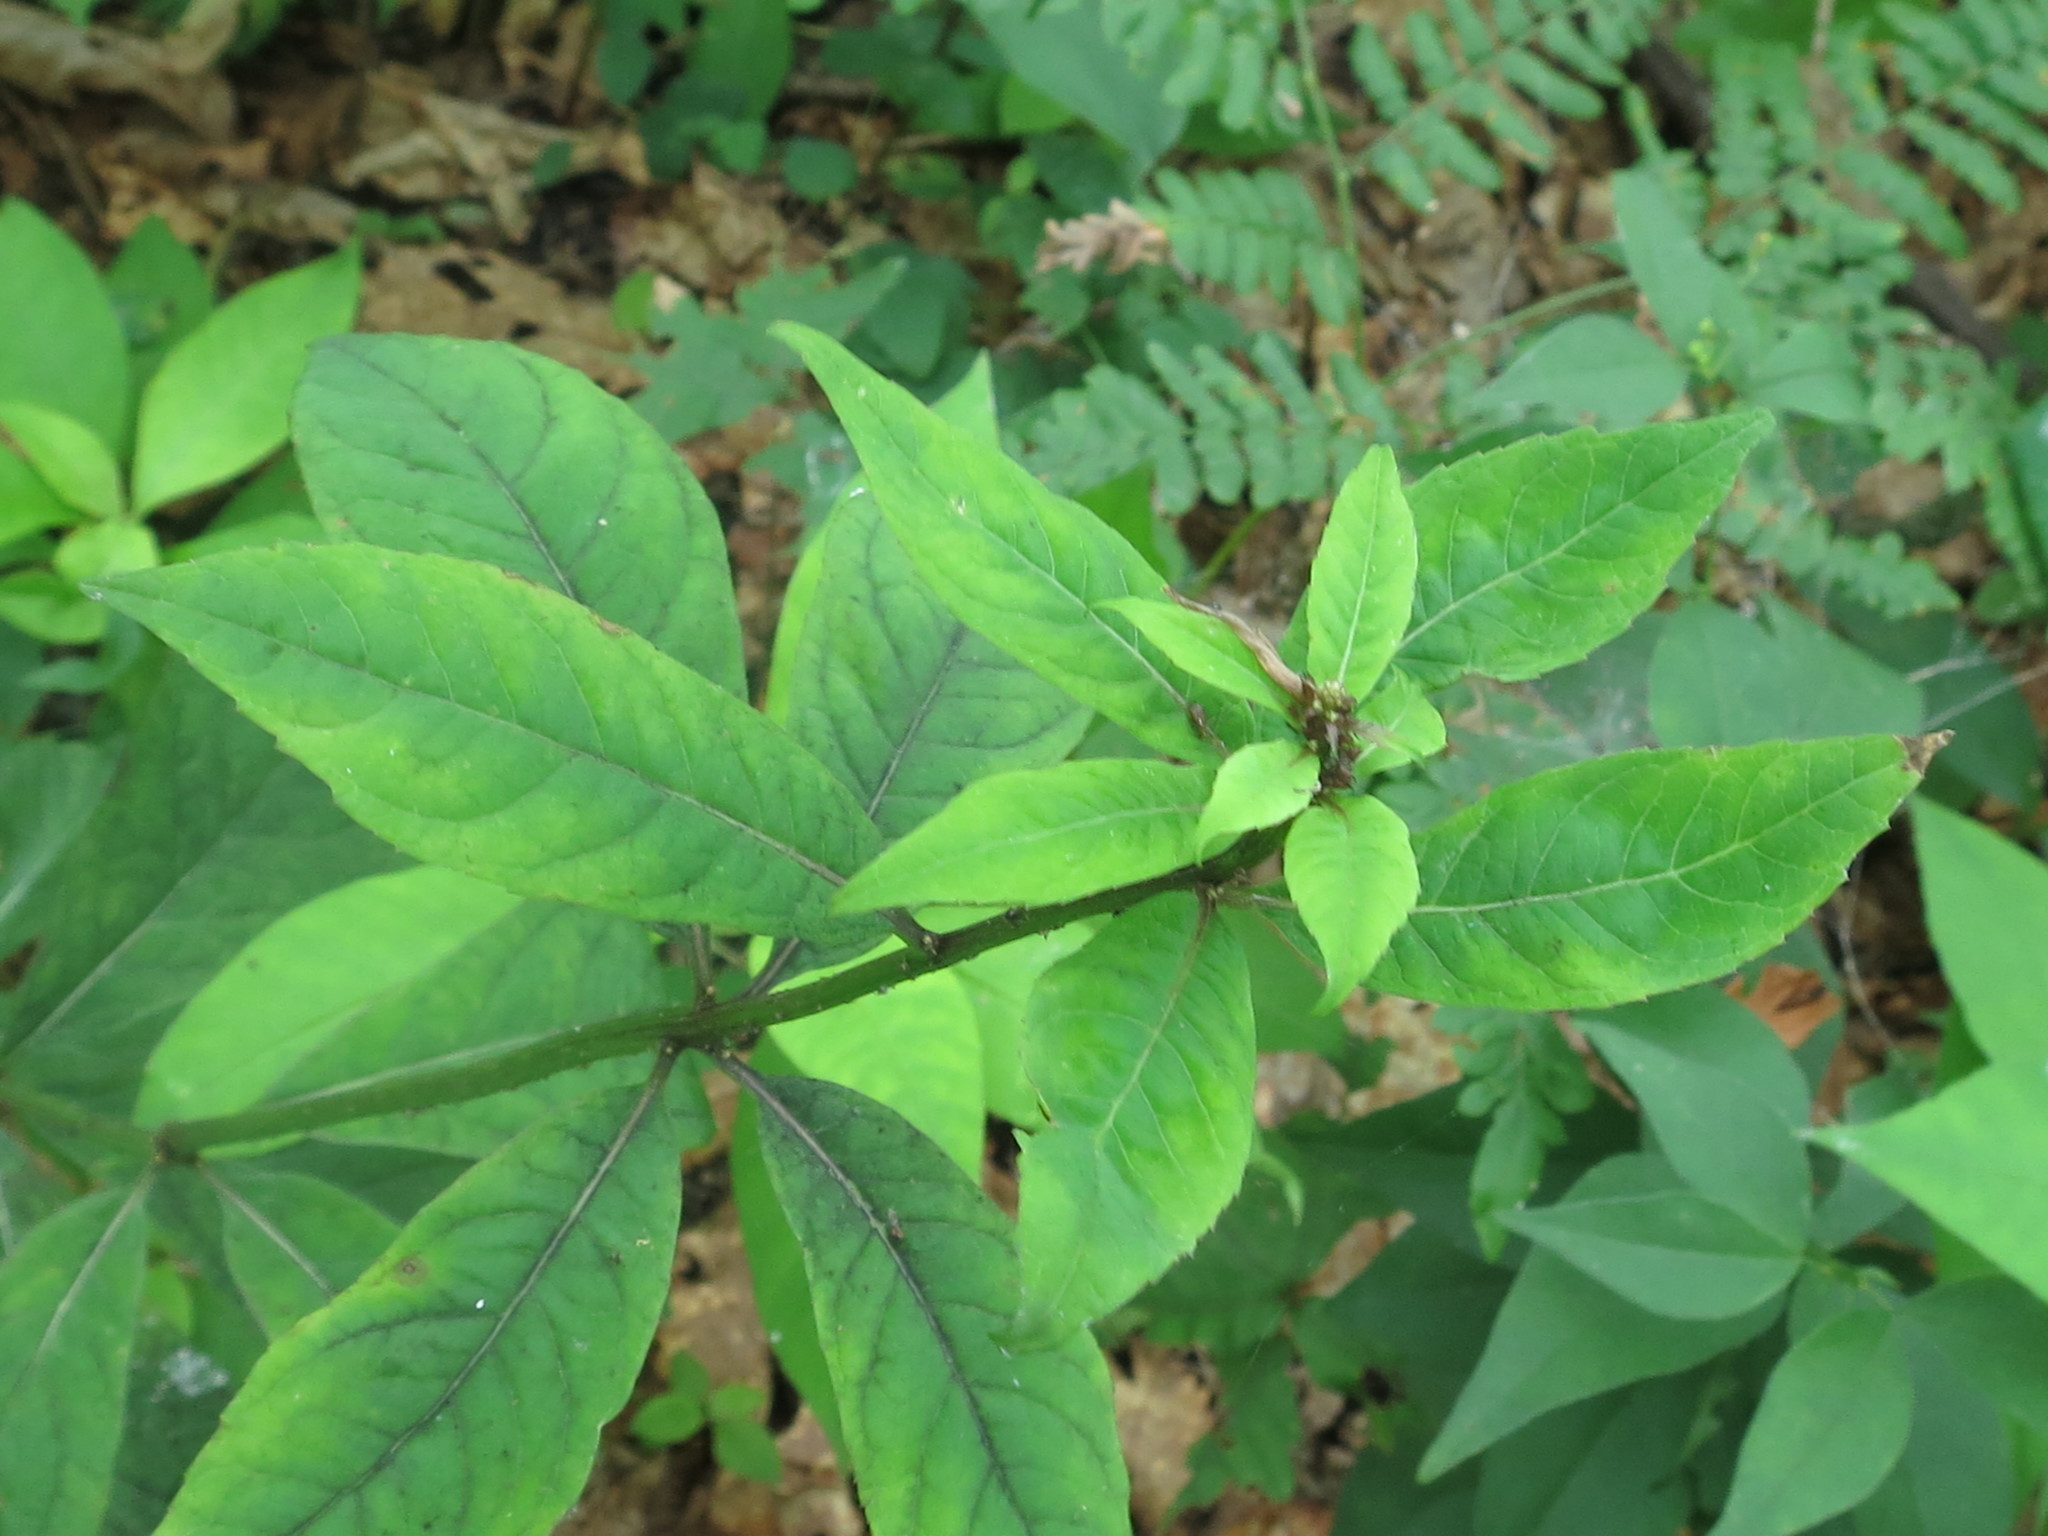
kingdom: Plantae
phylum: Tracheophyta
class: Magnoliopsida
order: Asterales
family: Campanulaceae
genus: Adenophora
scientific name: Adenophora pereskiifolia
